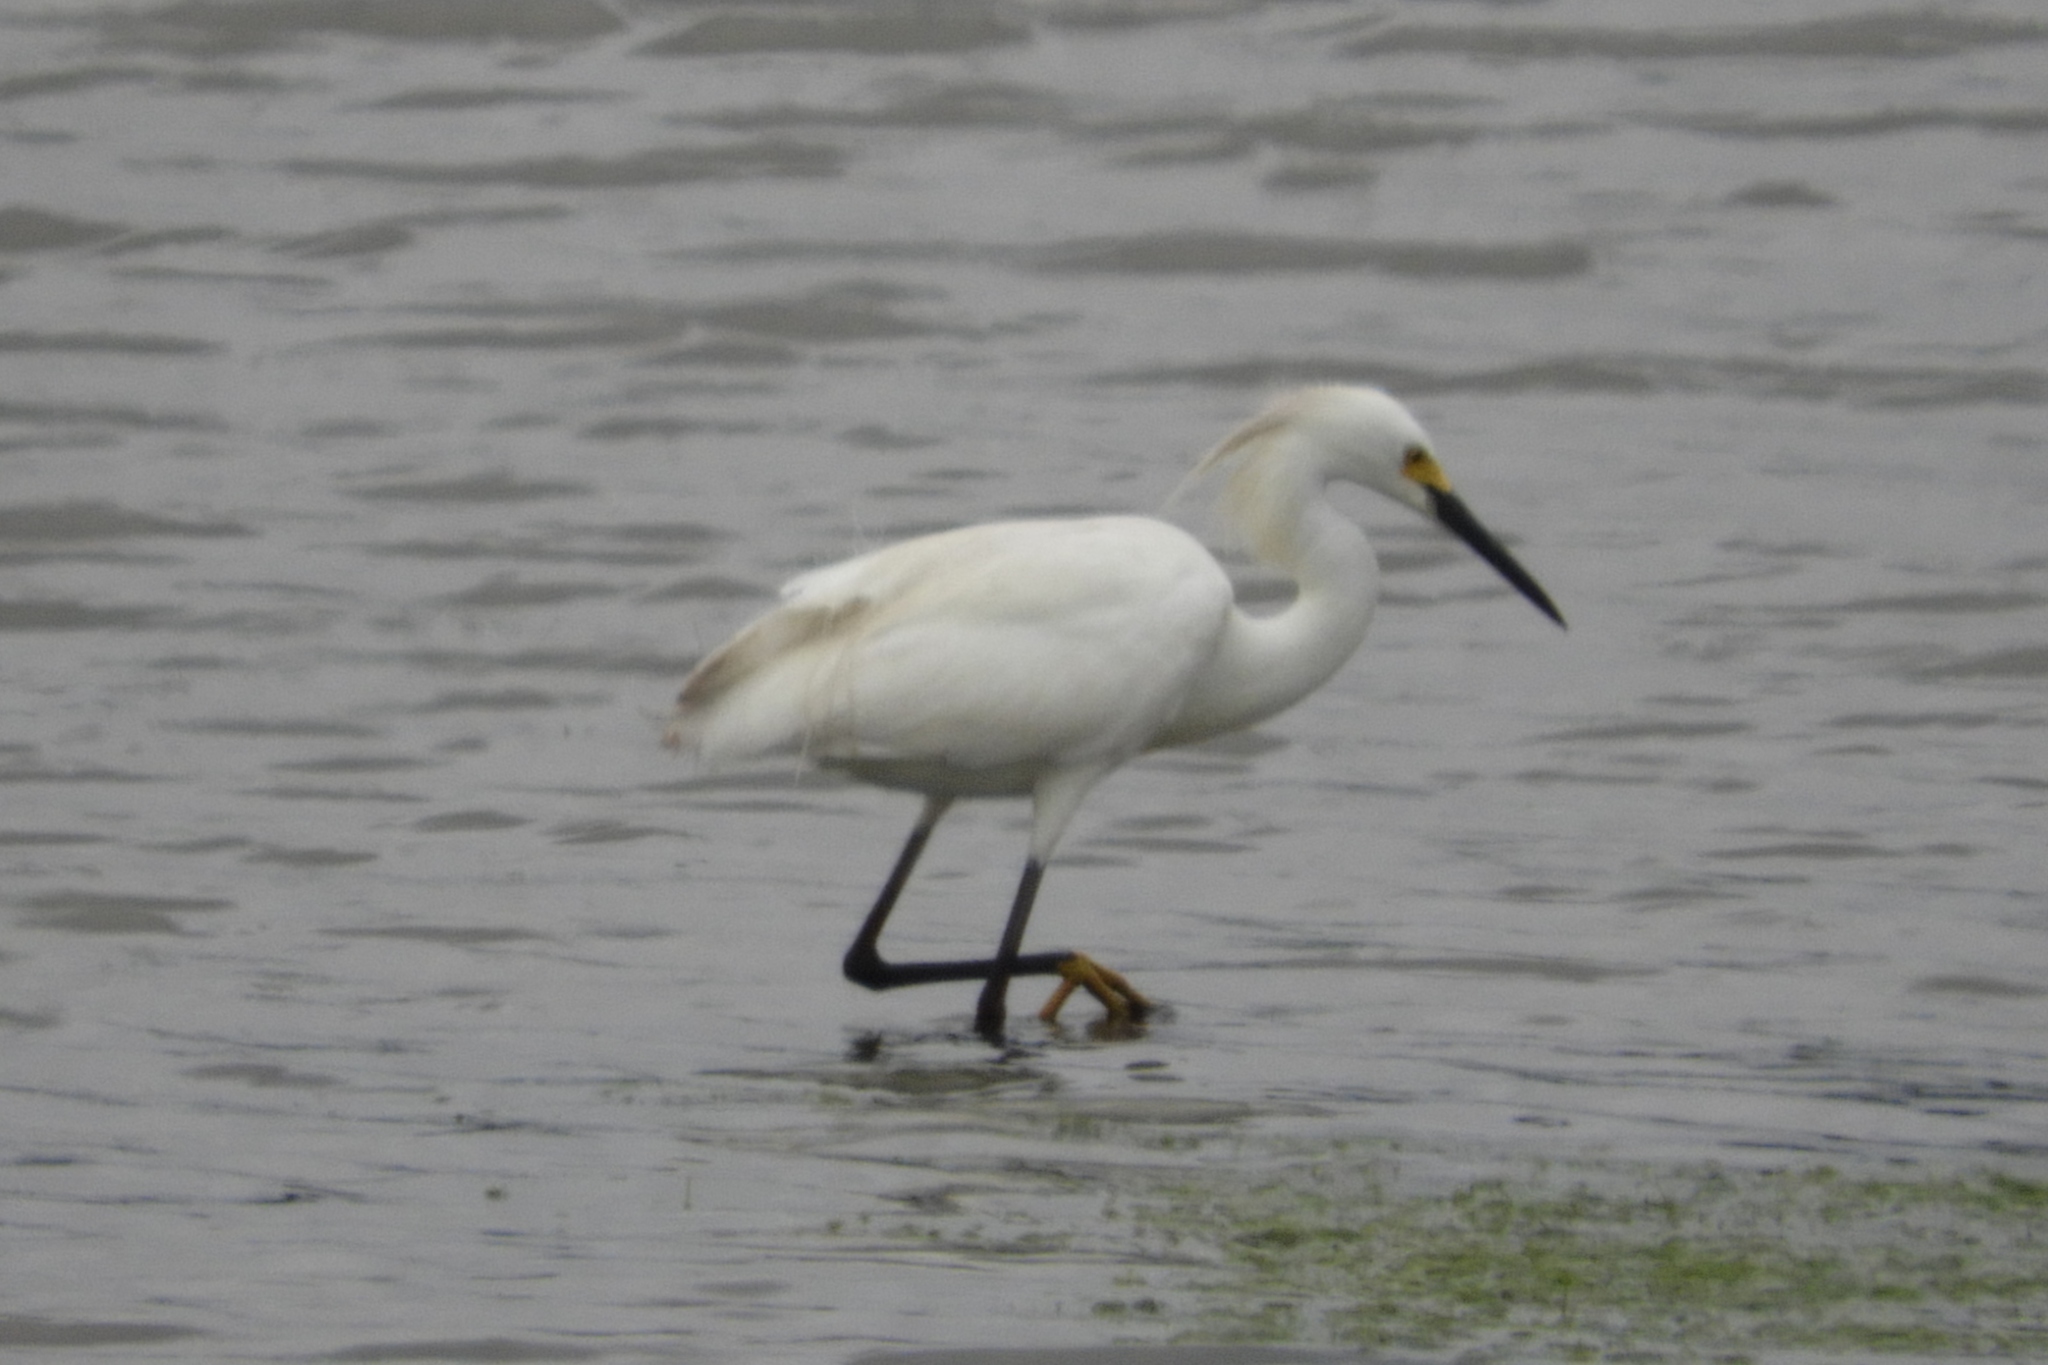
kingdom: Animalia
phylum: Chordata
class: Aves
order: Pelecaniformes
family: Ardeidae
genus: Egretta
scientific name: Egretta thula
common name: Snowy egret
